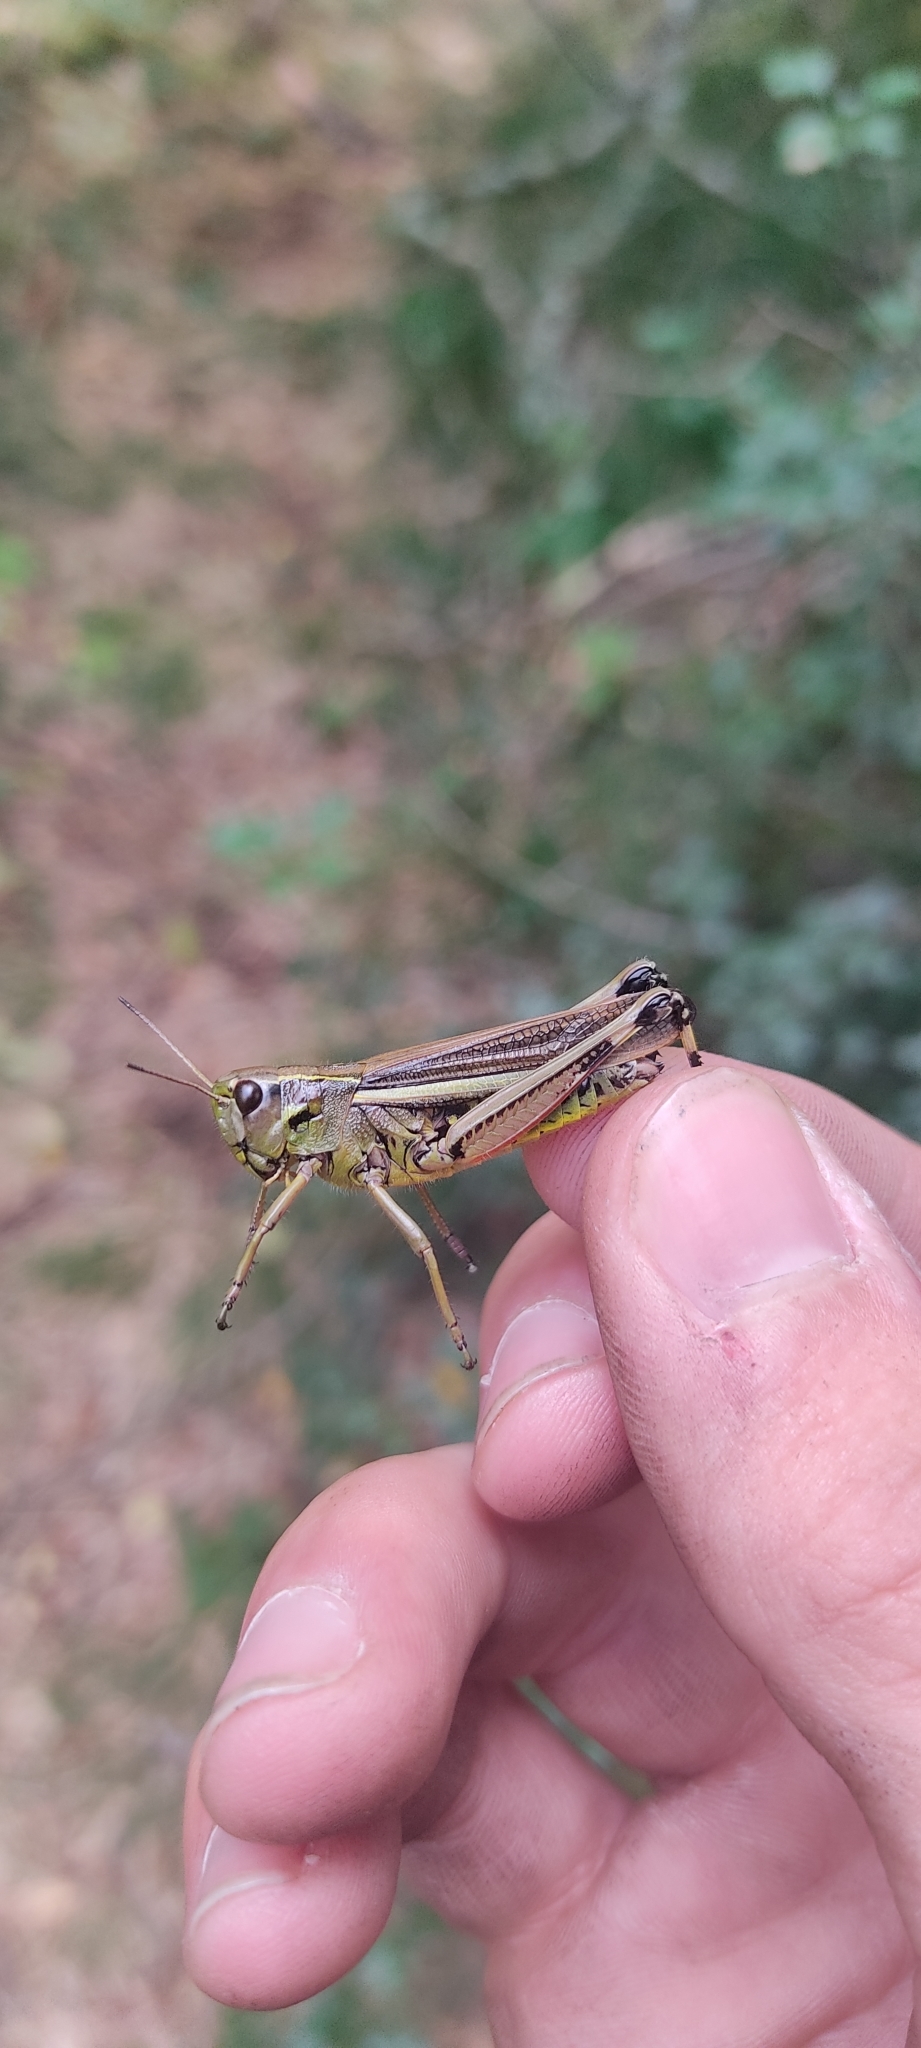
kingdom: Animalia
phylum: Arthropoda
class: Insecta
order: Orthoptera
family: Acrididae
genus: Stethophyma
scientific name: Stethophyma grossum
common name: Large marsh grasshopper
